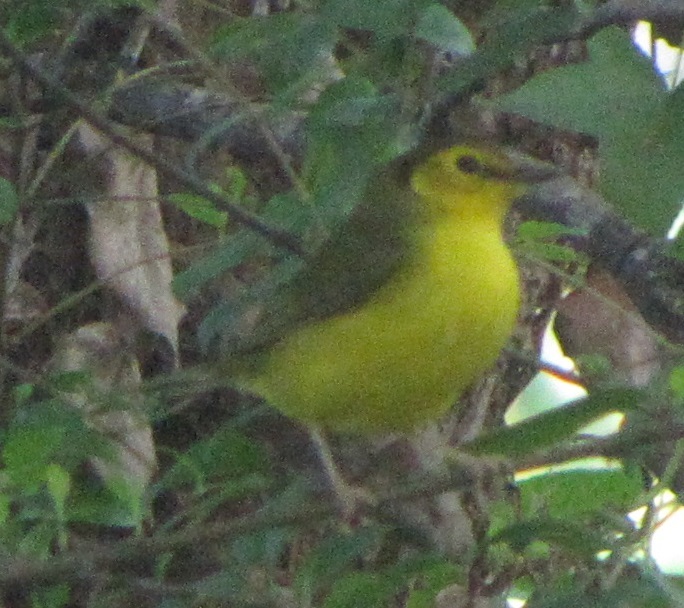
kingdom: Animalia
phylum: Chordata
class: Aves
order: Passeriformes
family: Parulidae
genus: Setophaga
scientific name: Setophaga citrina
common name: Hooded warbler
